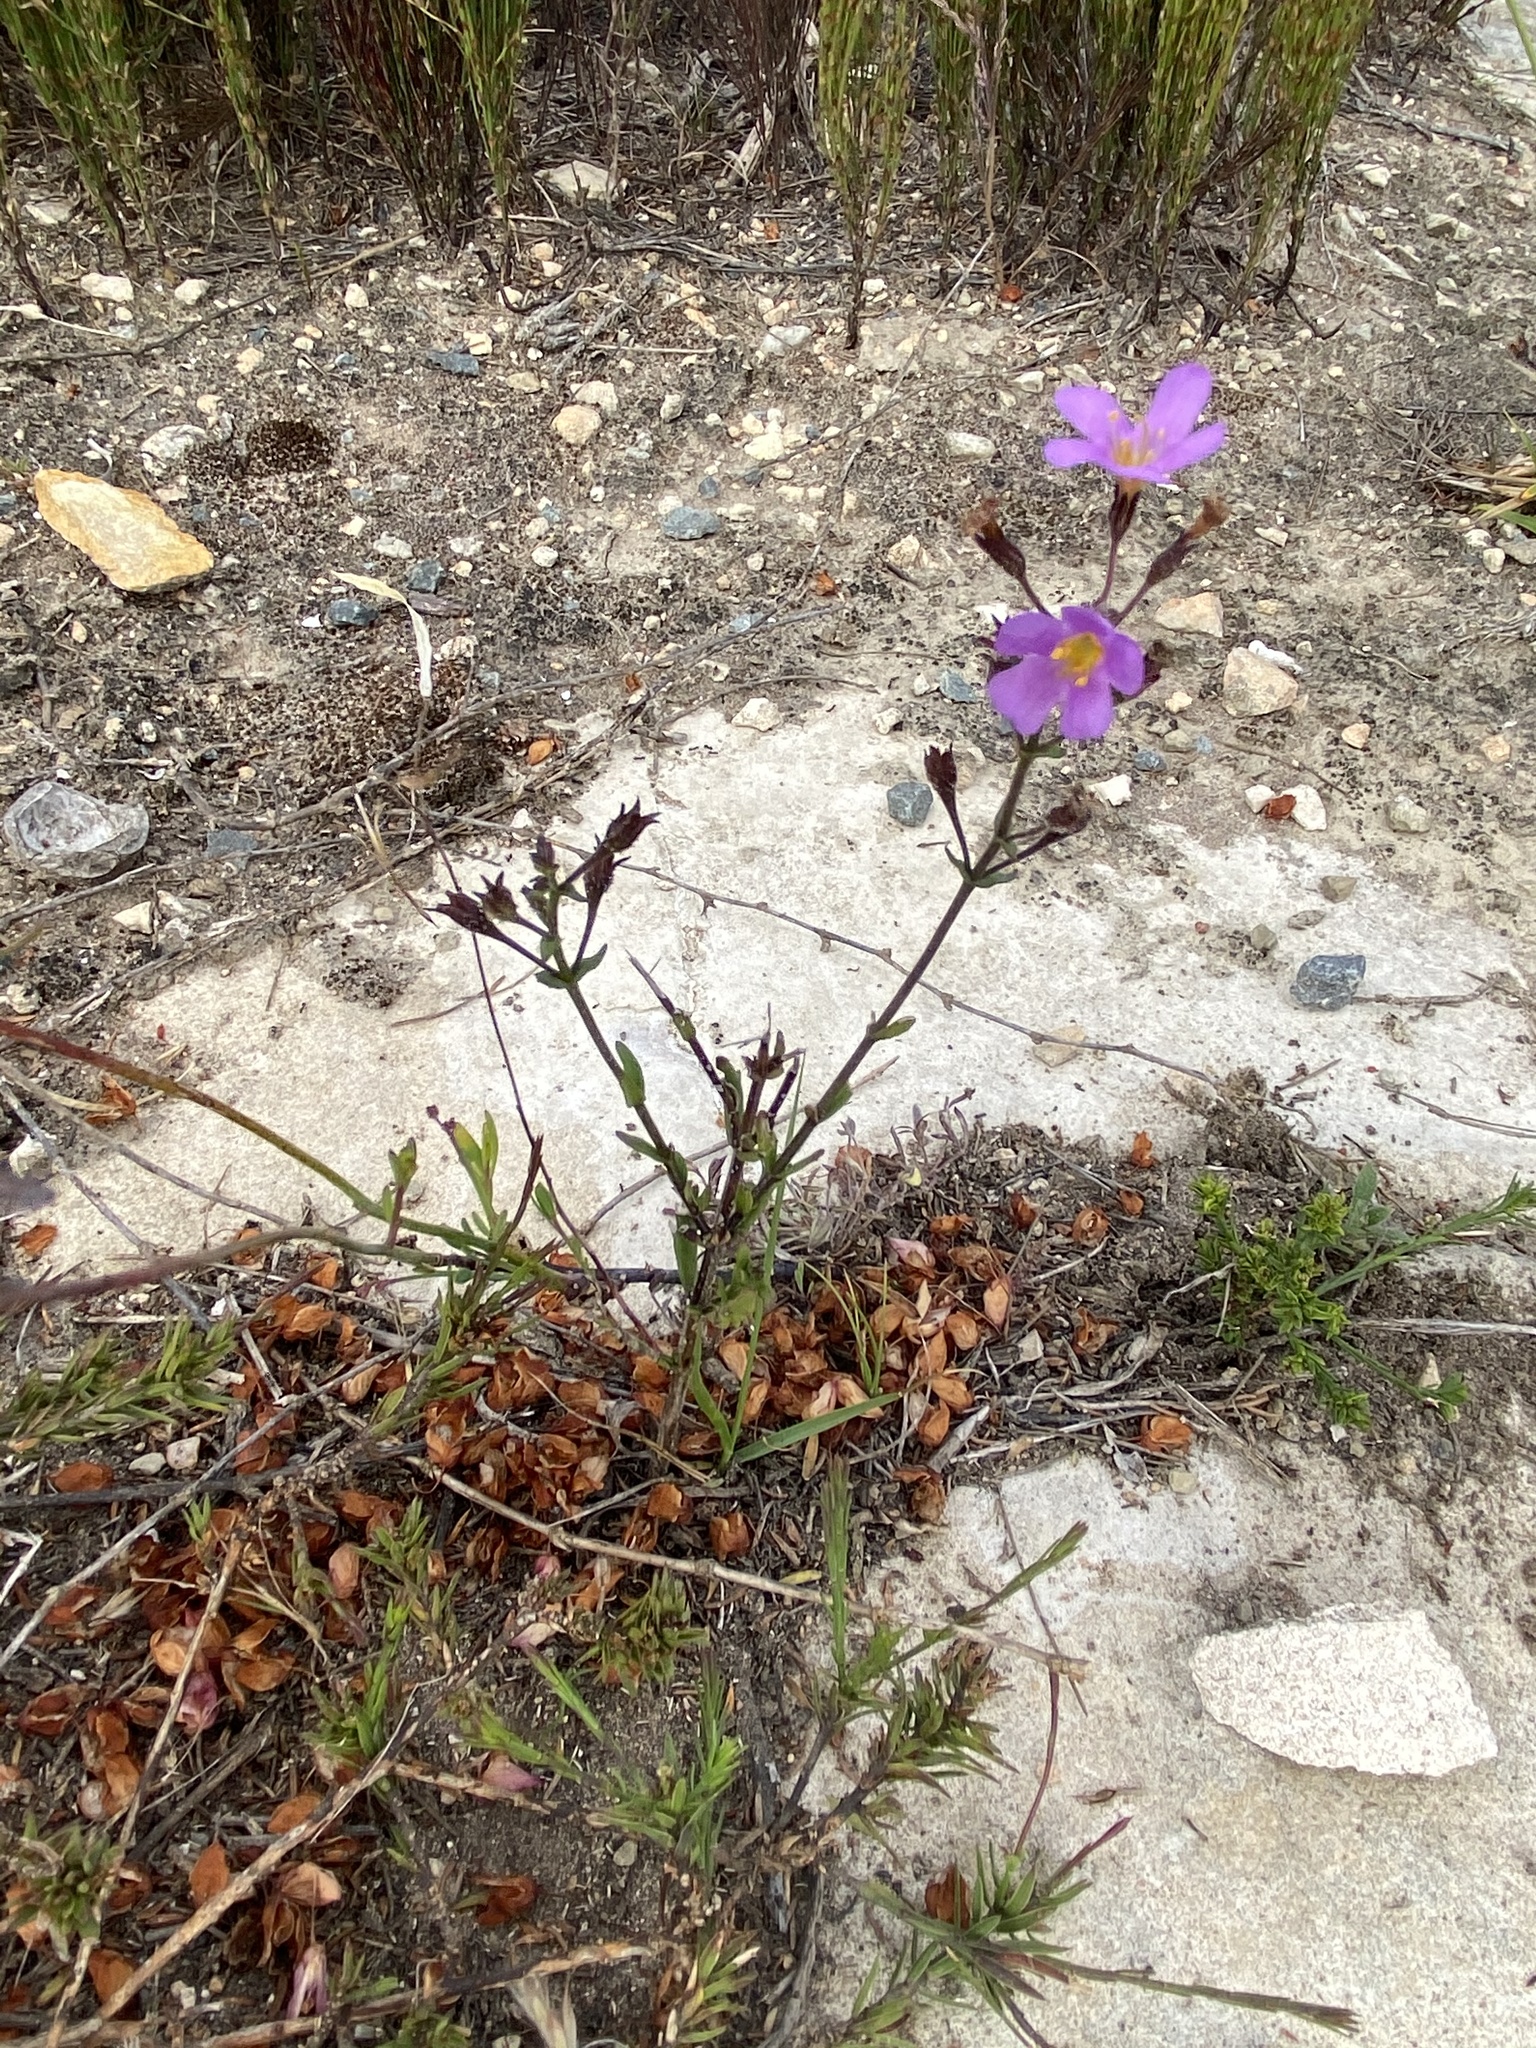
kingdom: Plantae
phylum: Tracheophyta
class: Magnoliopsida
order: Lamiales
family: Scrophulariaceae
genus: Chaenostoma
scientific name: Chaenostoma revolutum
